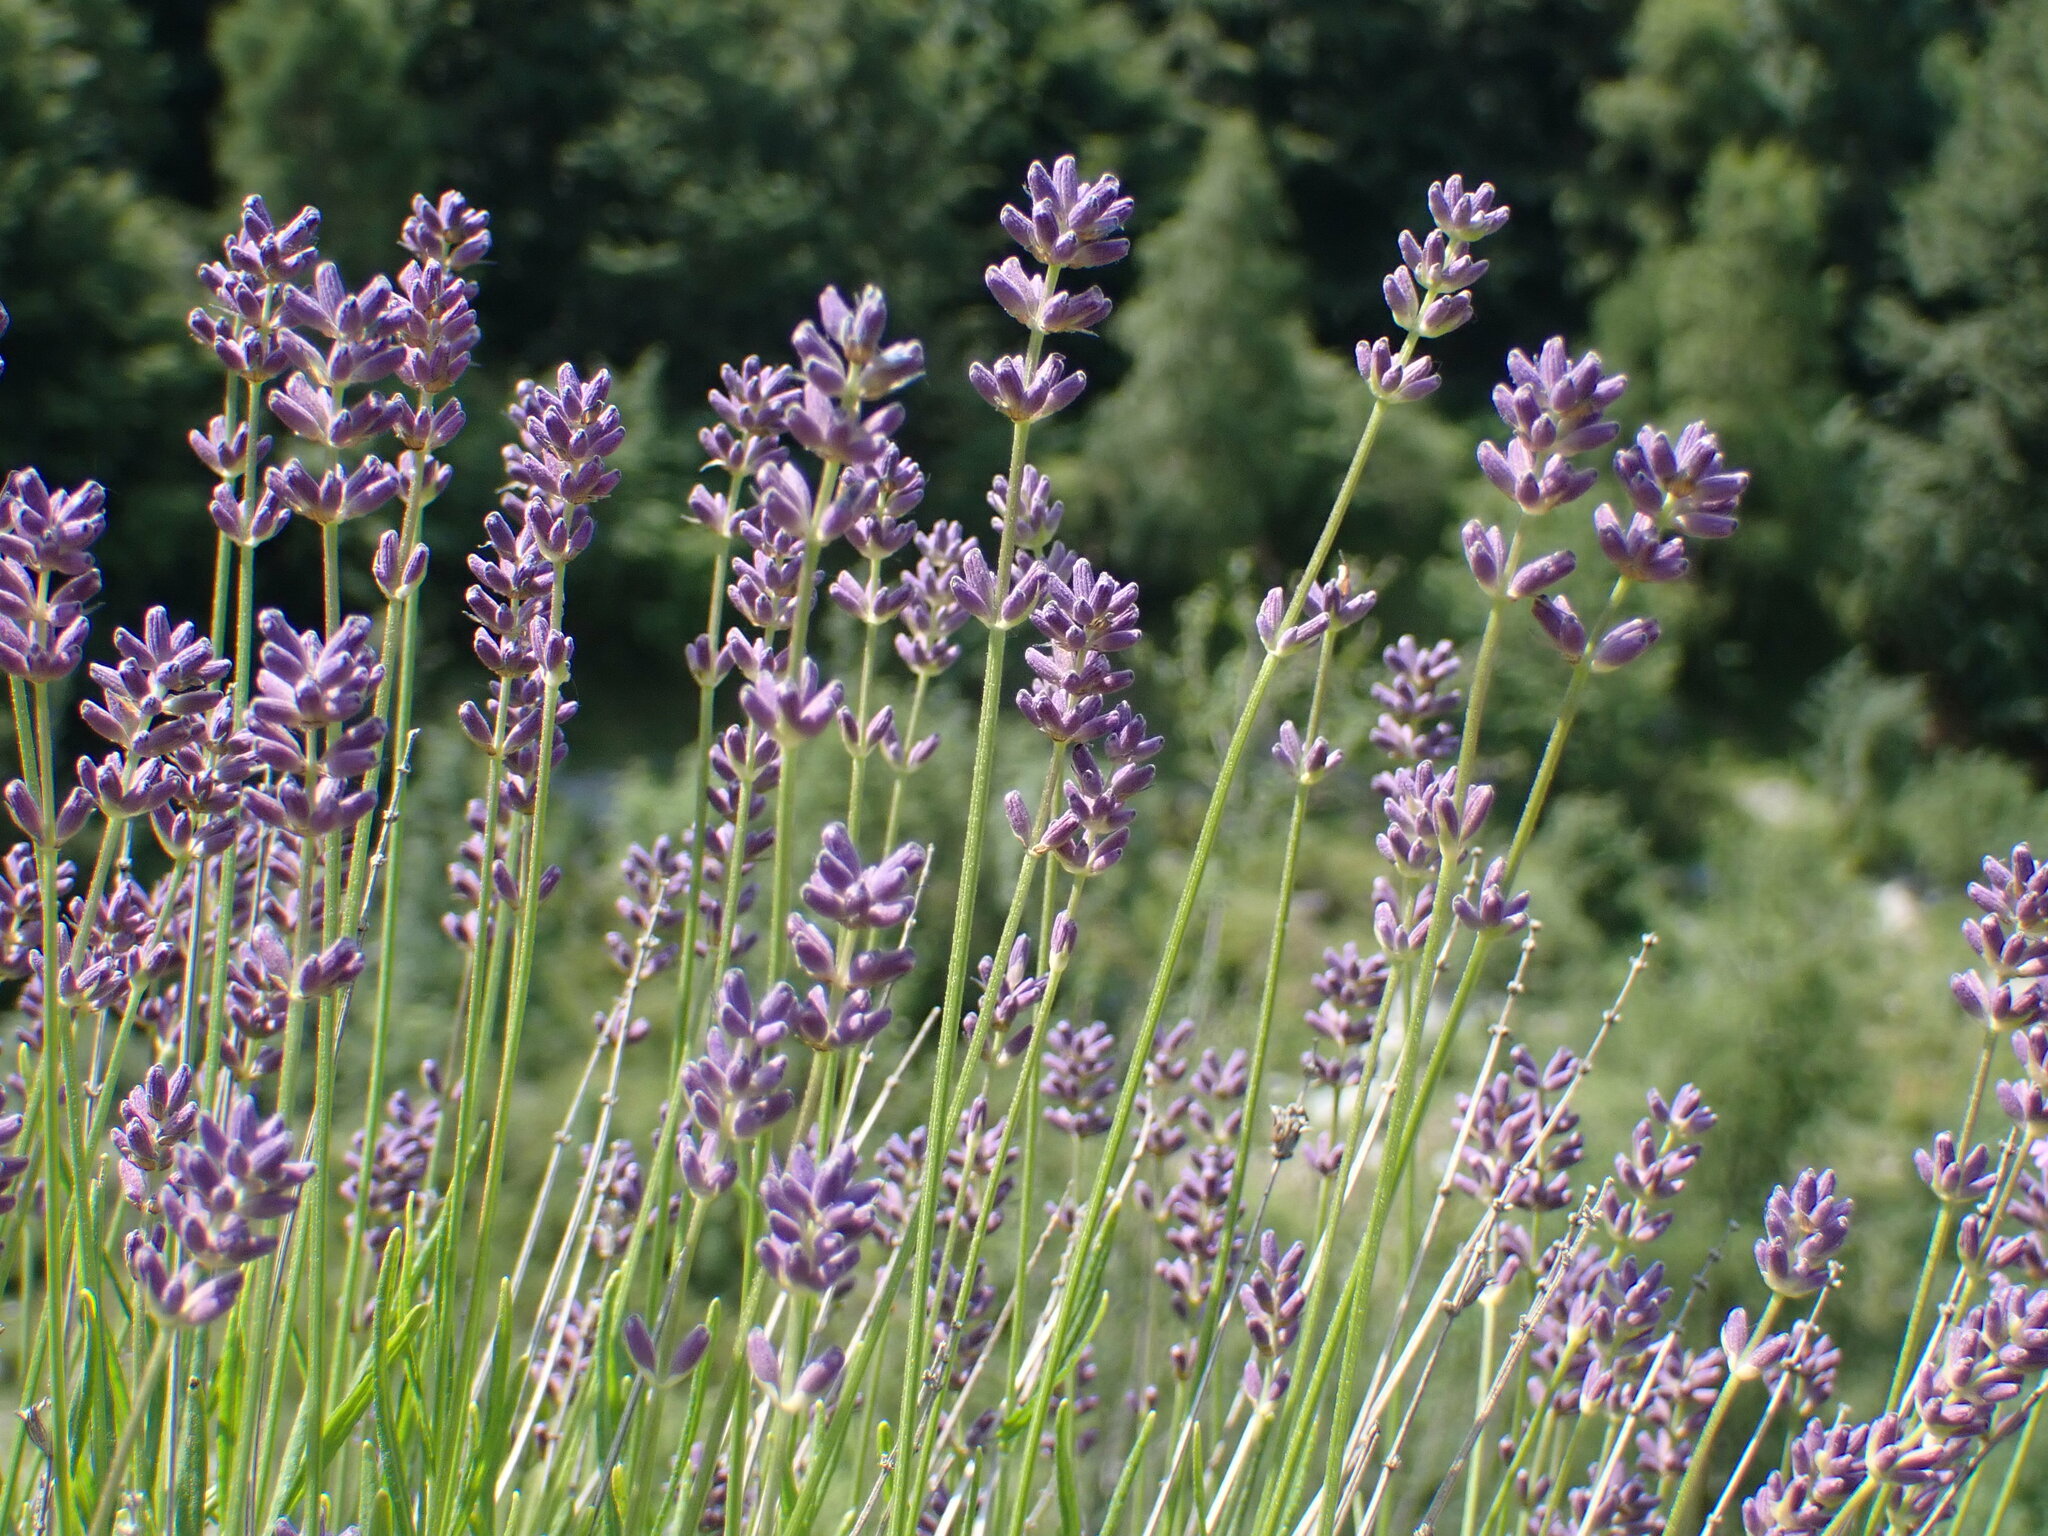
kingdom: Plantae
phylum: Tracheophyta
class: Magnoliopsida
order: Lamiales
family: Lamiaceae
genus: Lavandula
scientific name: Lavandula angustifolia
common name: Garden lavender
